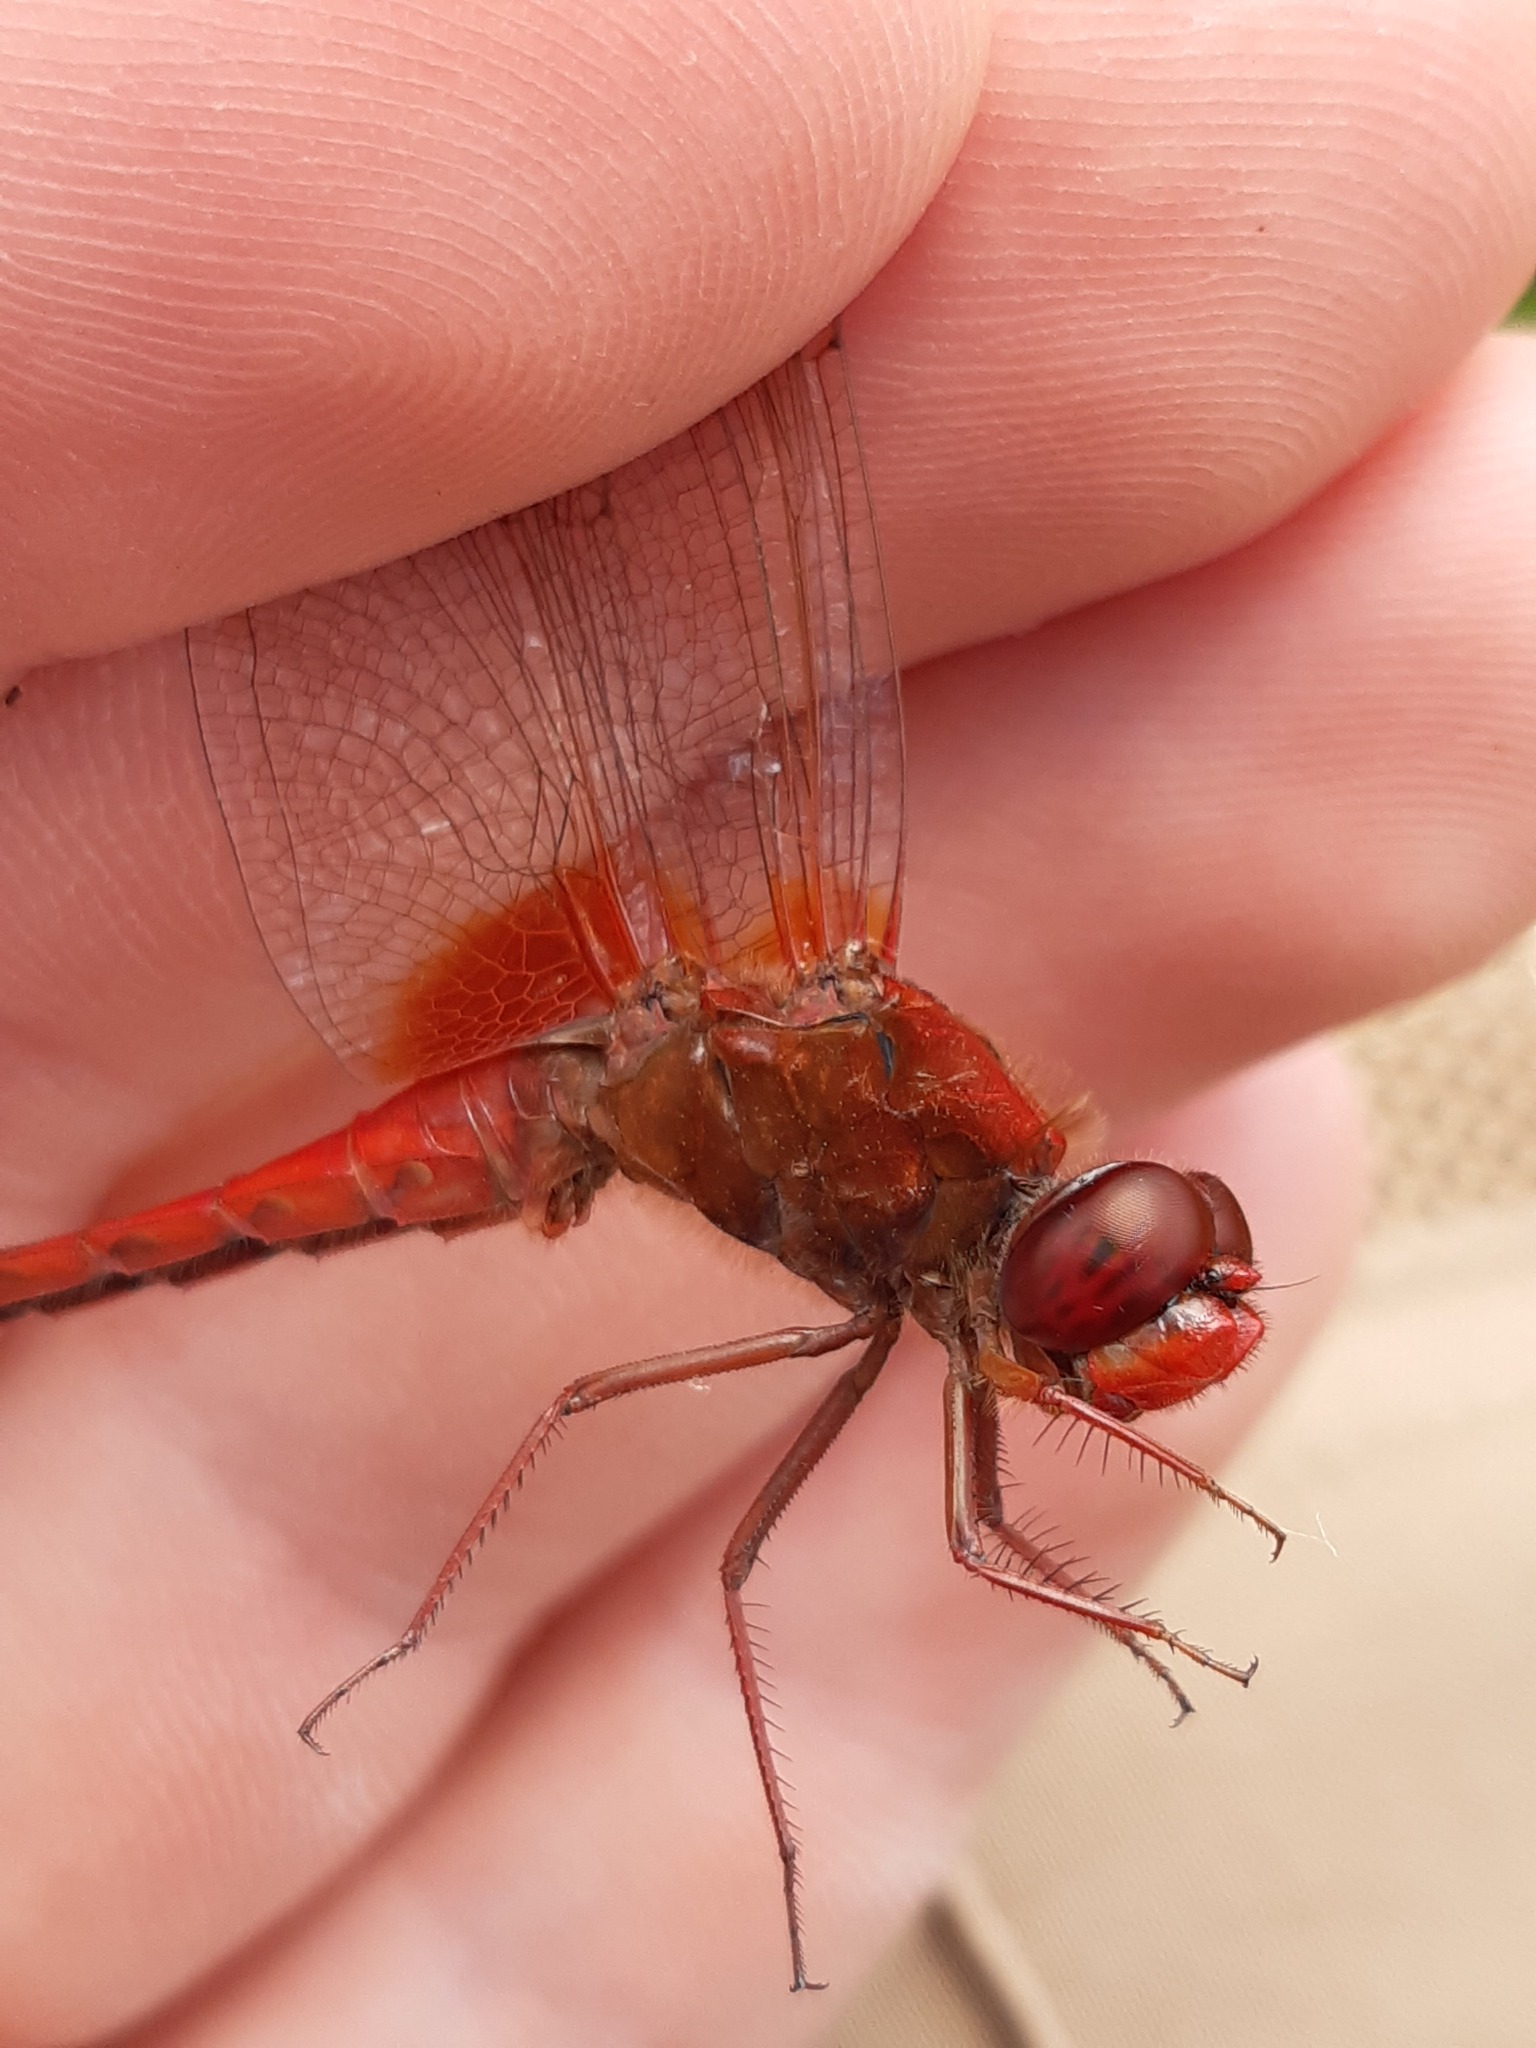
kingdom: Animalia
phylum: Arthropoda
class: Insecta
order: Odonata
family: Libellulidae
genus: Crocothemis
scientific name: Crocothemis erythraea
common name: Scarlet dragonfly
